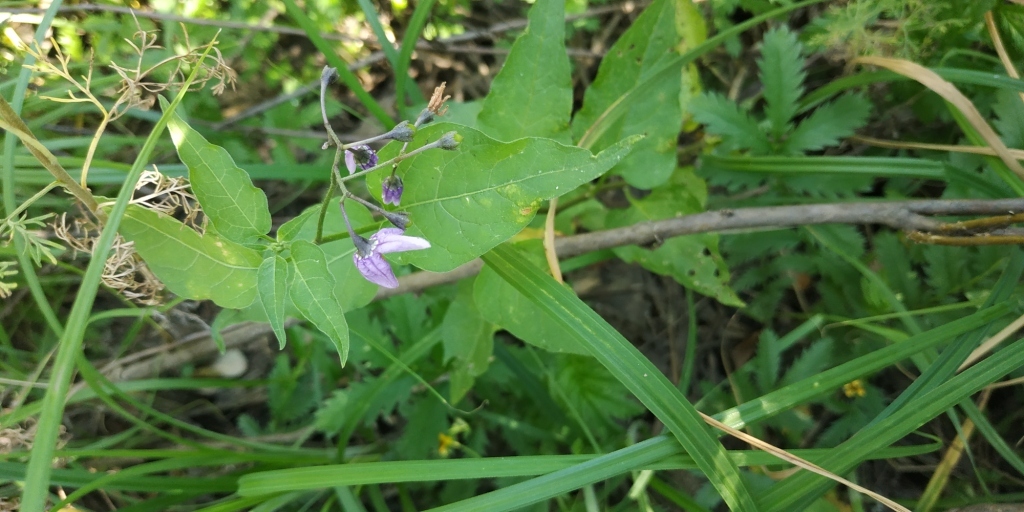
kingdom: Plantae
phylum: Tracheophyta
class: Magnoliopsida
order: Solanales
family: Solanaceae
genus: Solanum
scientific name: Solanum dulcamara
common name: Climbing nightshade
